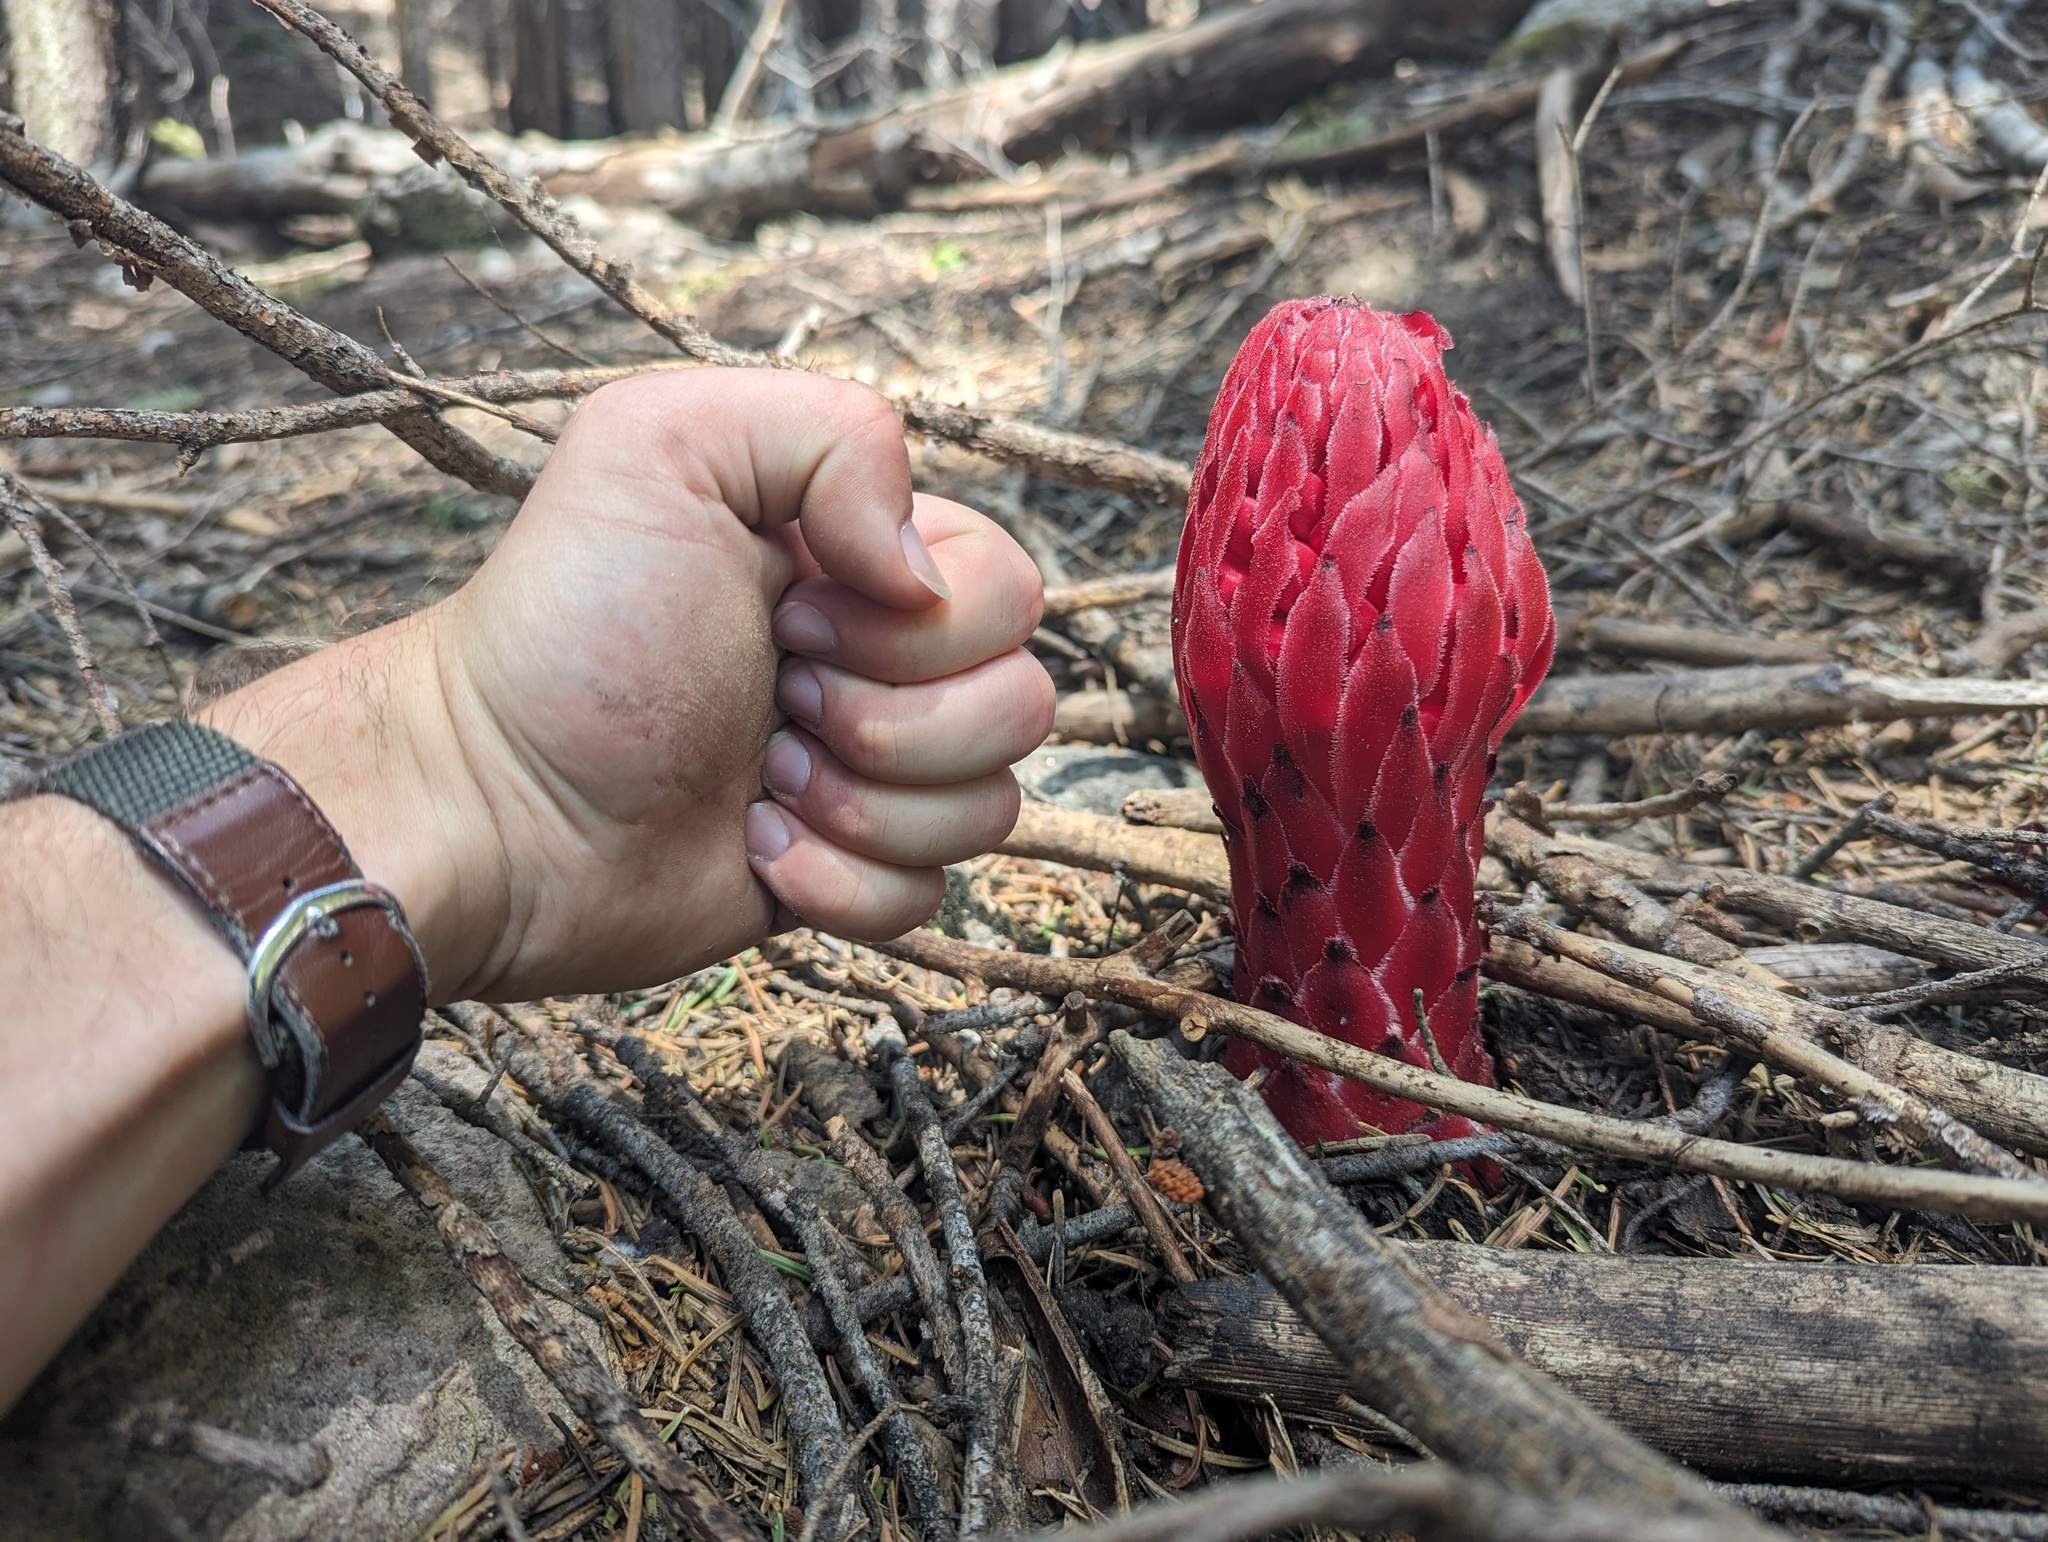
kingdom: Plantae
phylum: Tracheophyta
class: Magnoliopsida
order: Ericales
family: Ericaceae
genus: Sarcodes
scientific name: Sarcodes sanguinea
